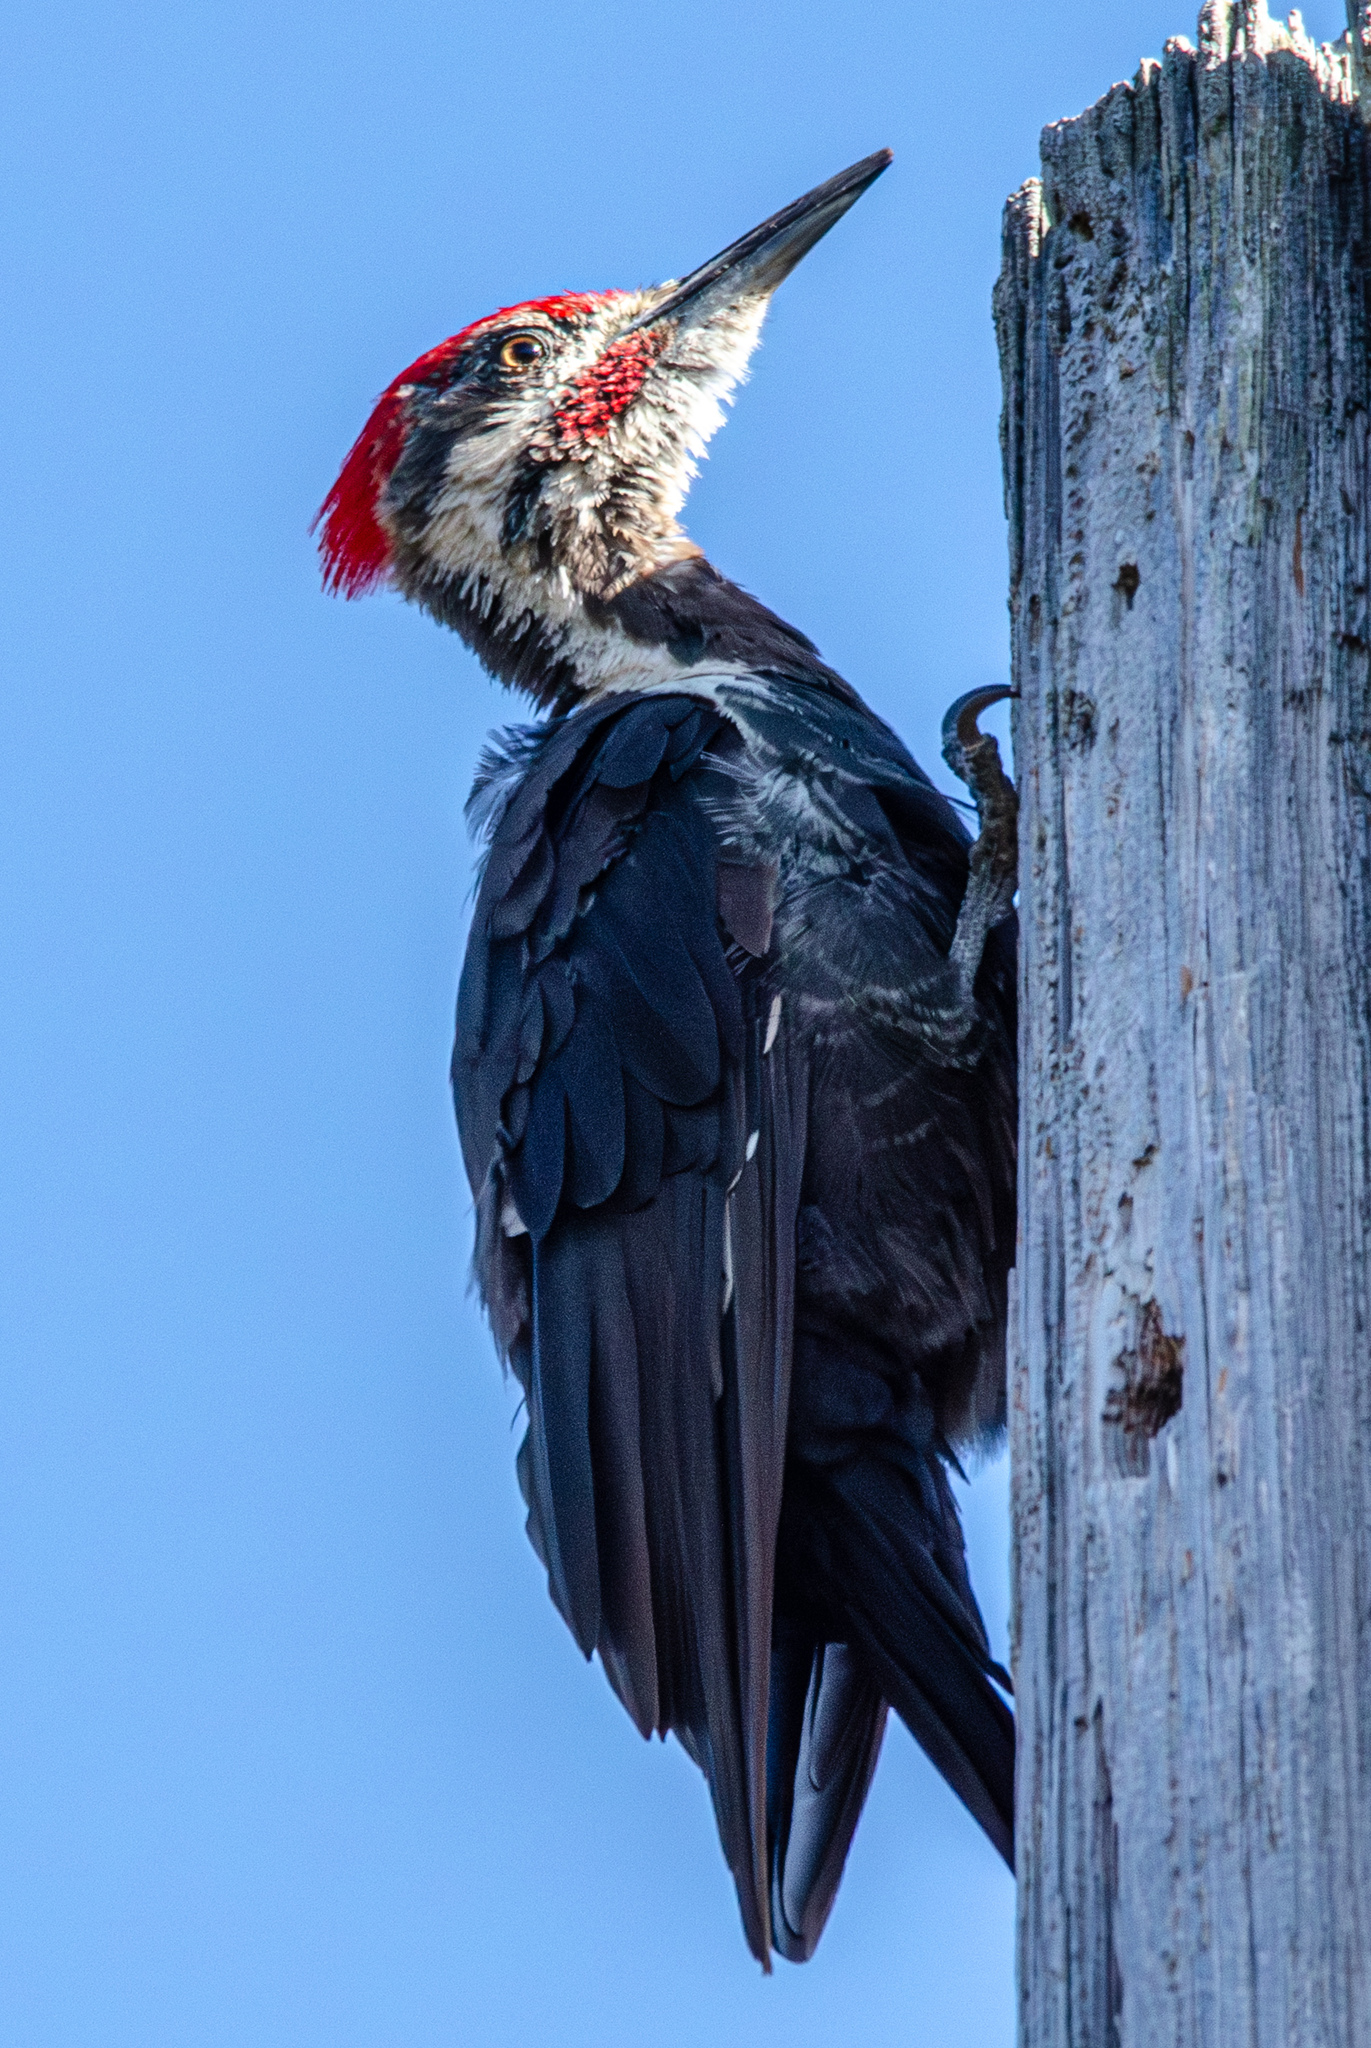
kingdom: Animalia
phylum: Chordata
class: Aves
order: Piciformes
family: Picidae
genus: Dryocopus
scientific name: Dryocopus pileatus
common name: Pileated woodpecker
